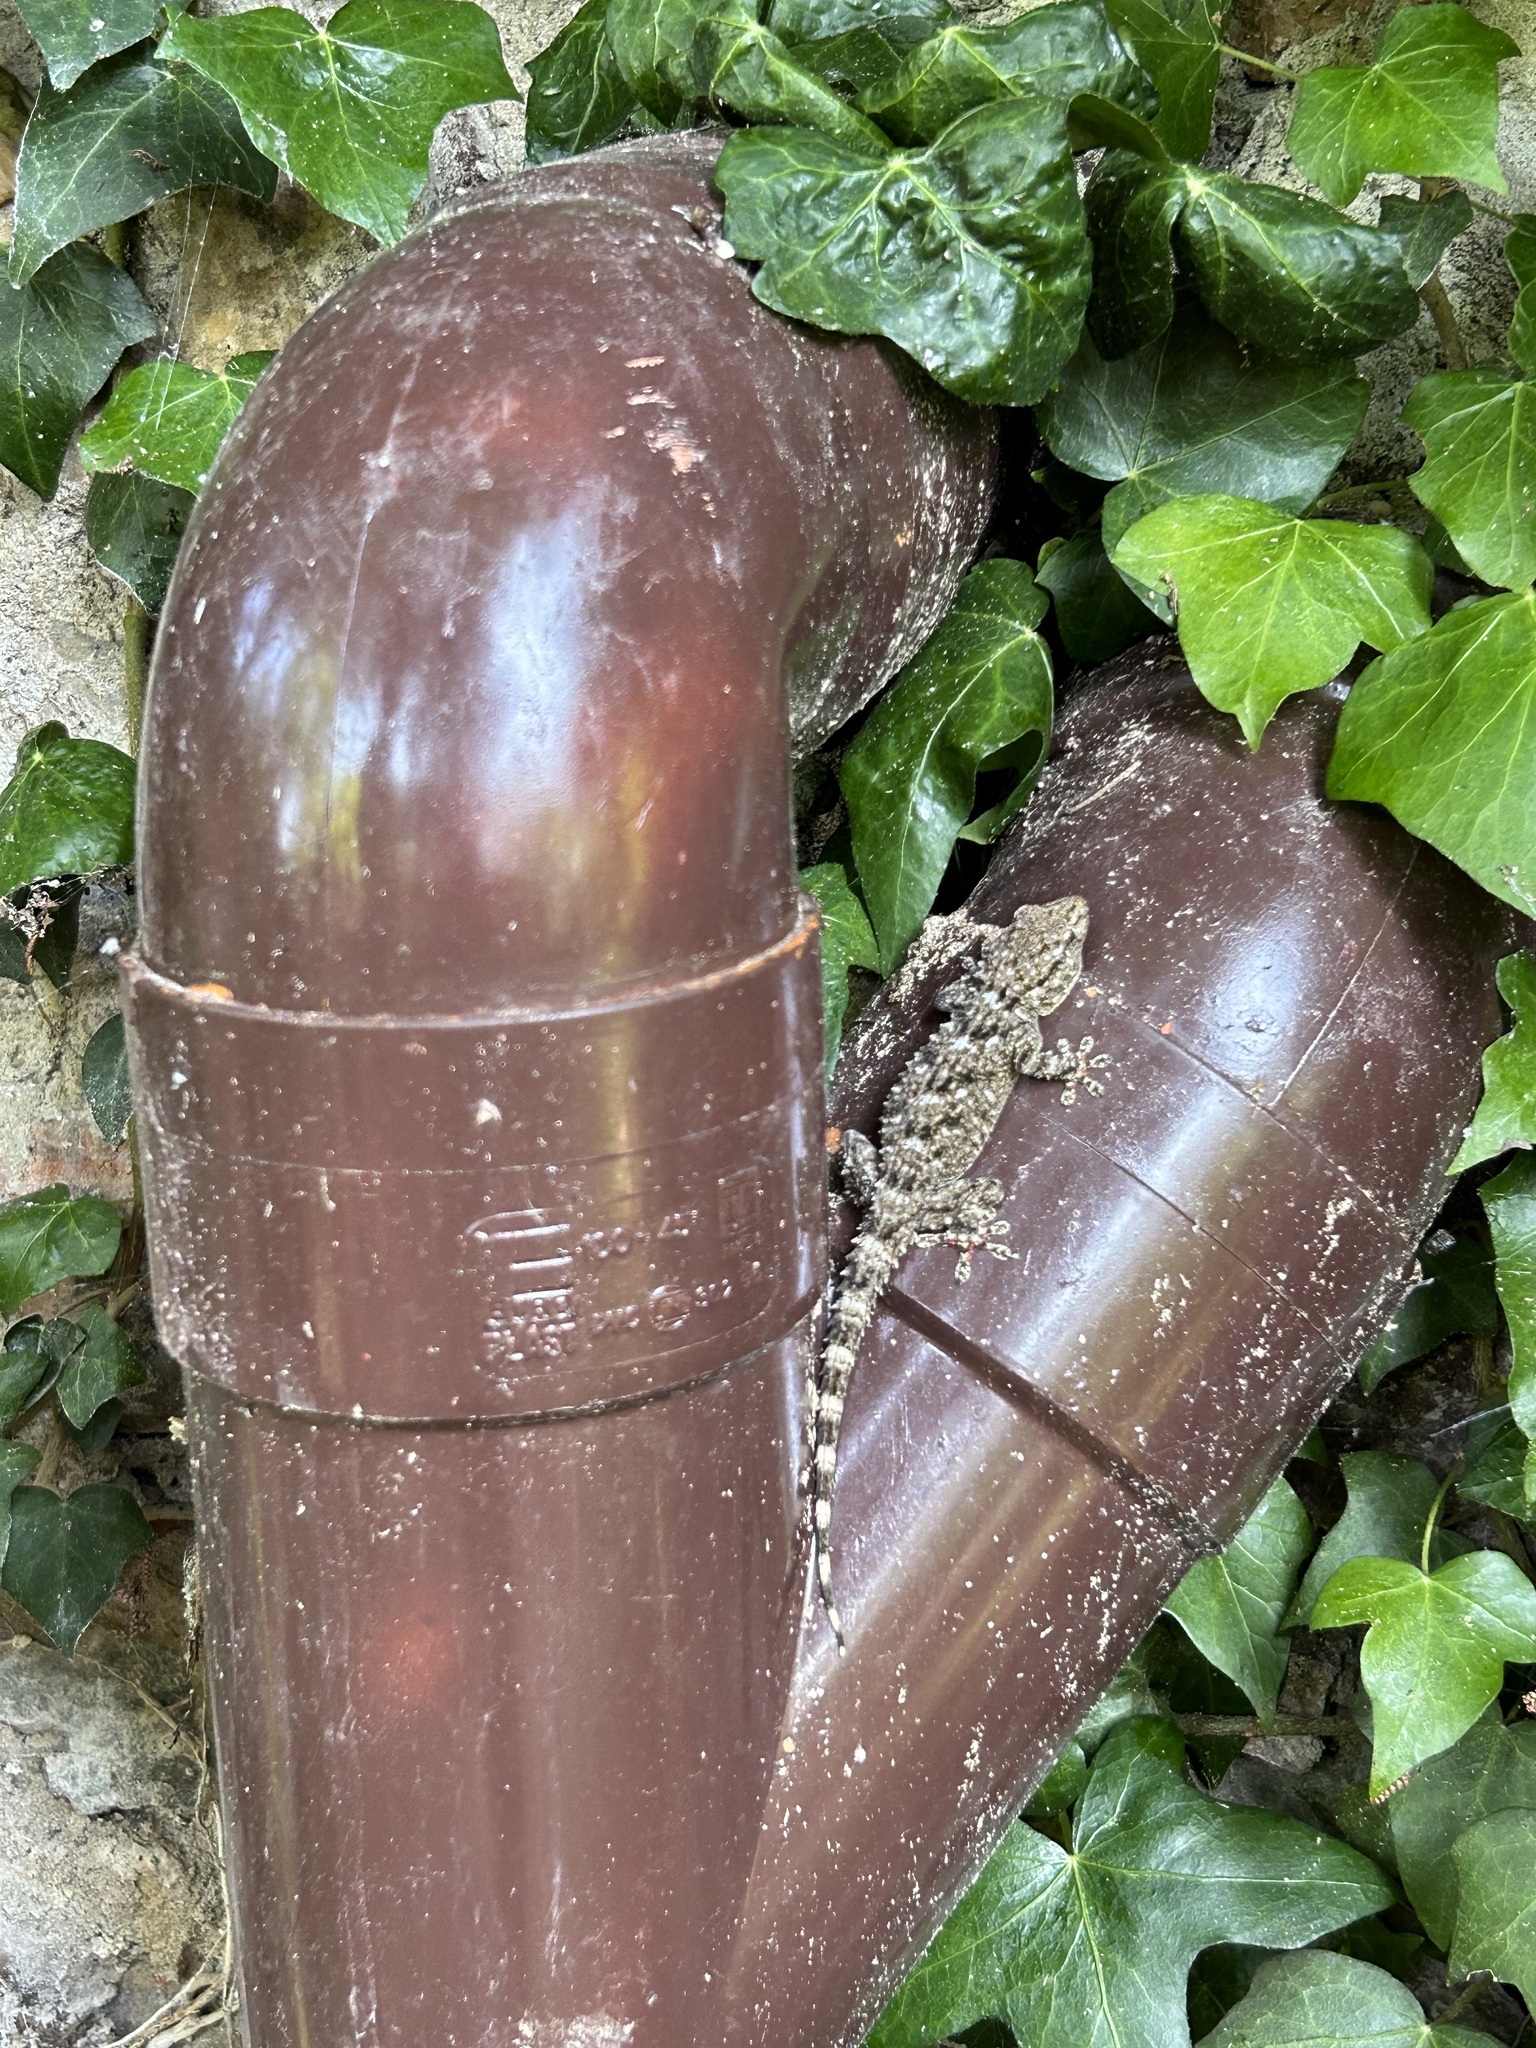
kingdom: Animalia
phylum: Chordata
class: Squamata
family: Phyllodactylidae
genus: Tarentola
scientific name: Tarentola mauritanica
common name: Moorish gecko
